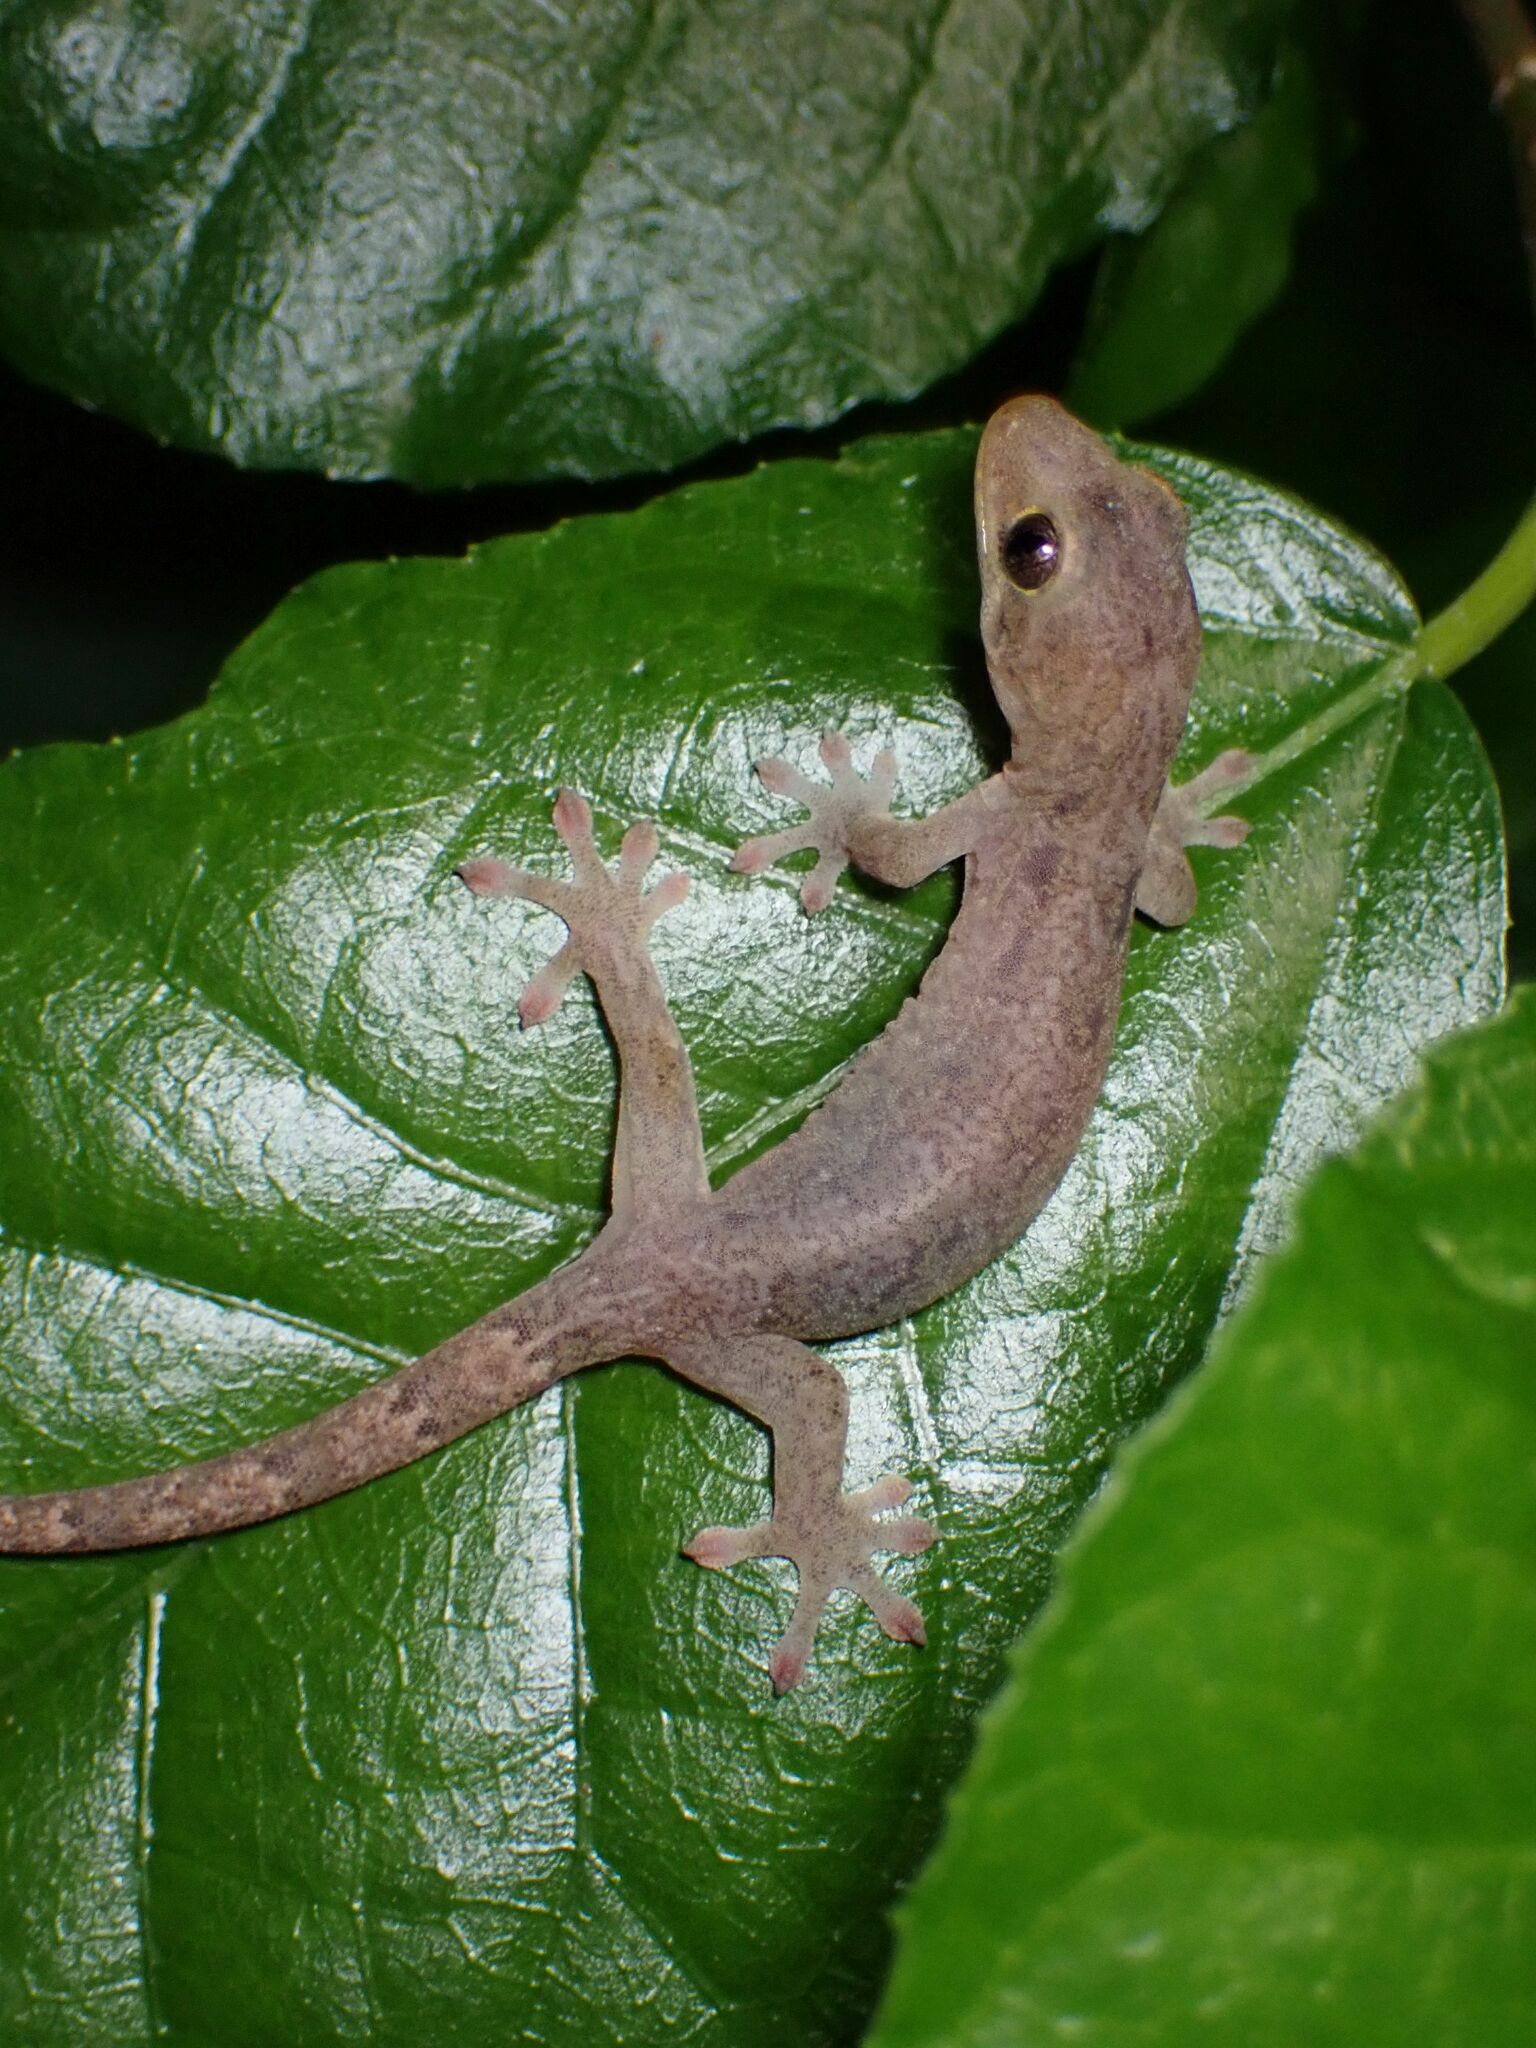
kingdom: Animalia
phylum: Chordata
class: Squamata
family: Gekkonidae
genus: Lepidodactylus
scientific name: Lepidodactylus vanuatuensis
